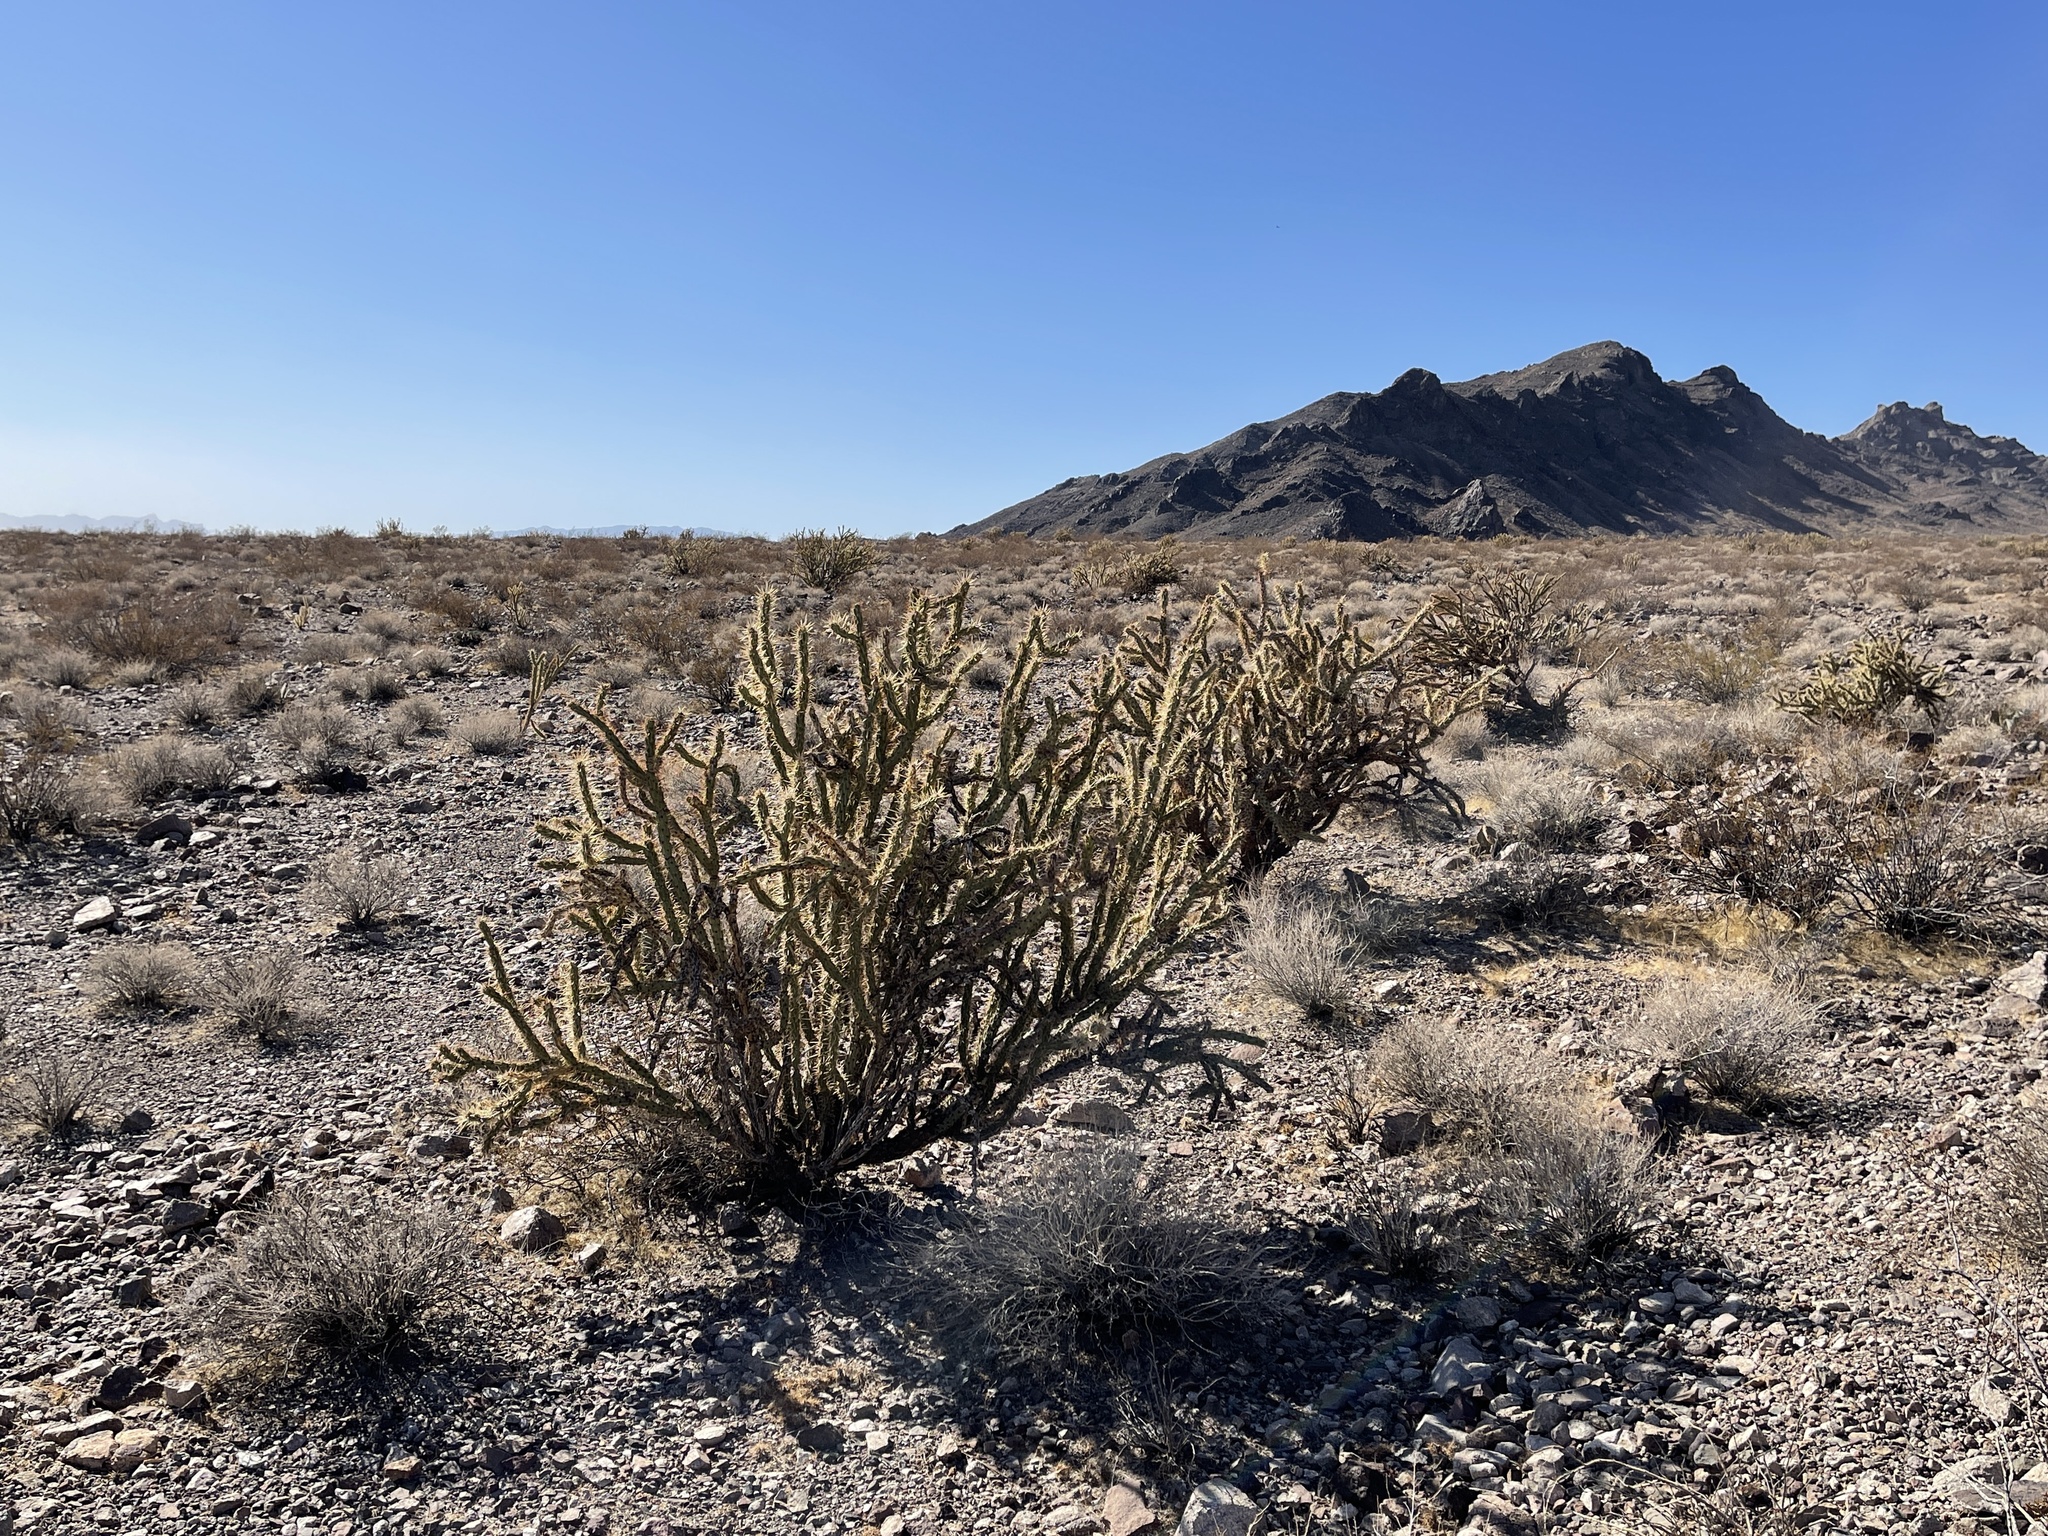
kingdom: Plantae
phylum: Tracheophyta
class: Magnoliopsida
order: Caryophyllales
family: Cactaceae
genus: Cylindropuntia
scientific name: Cylindropuntia acanthocarpa
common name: Buckhorn cholla
